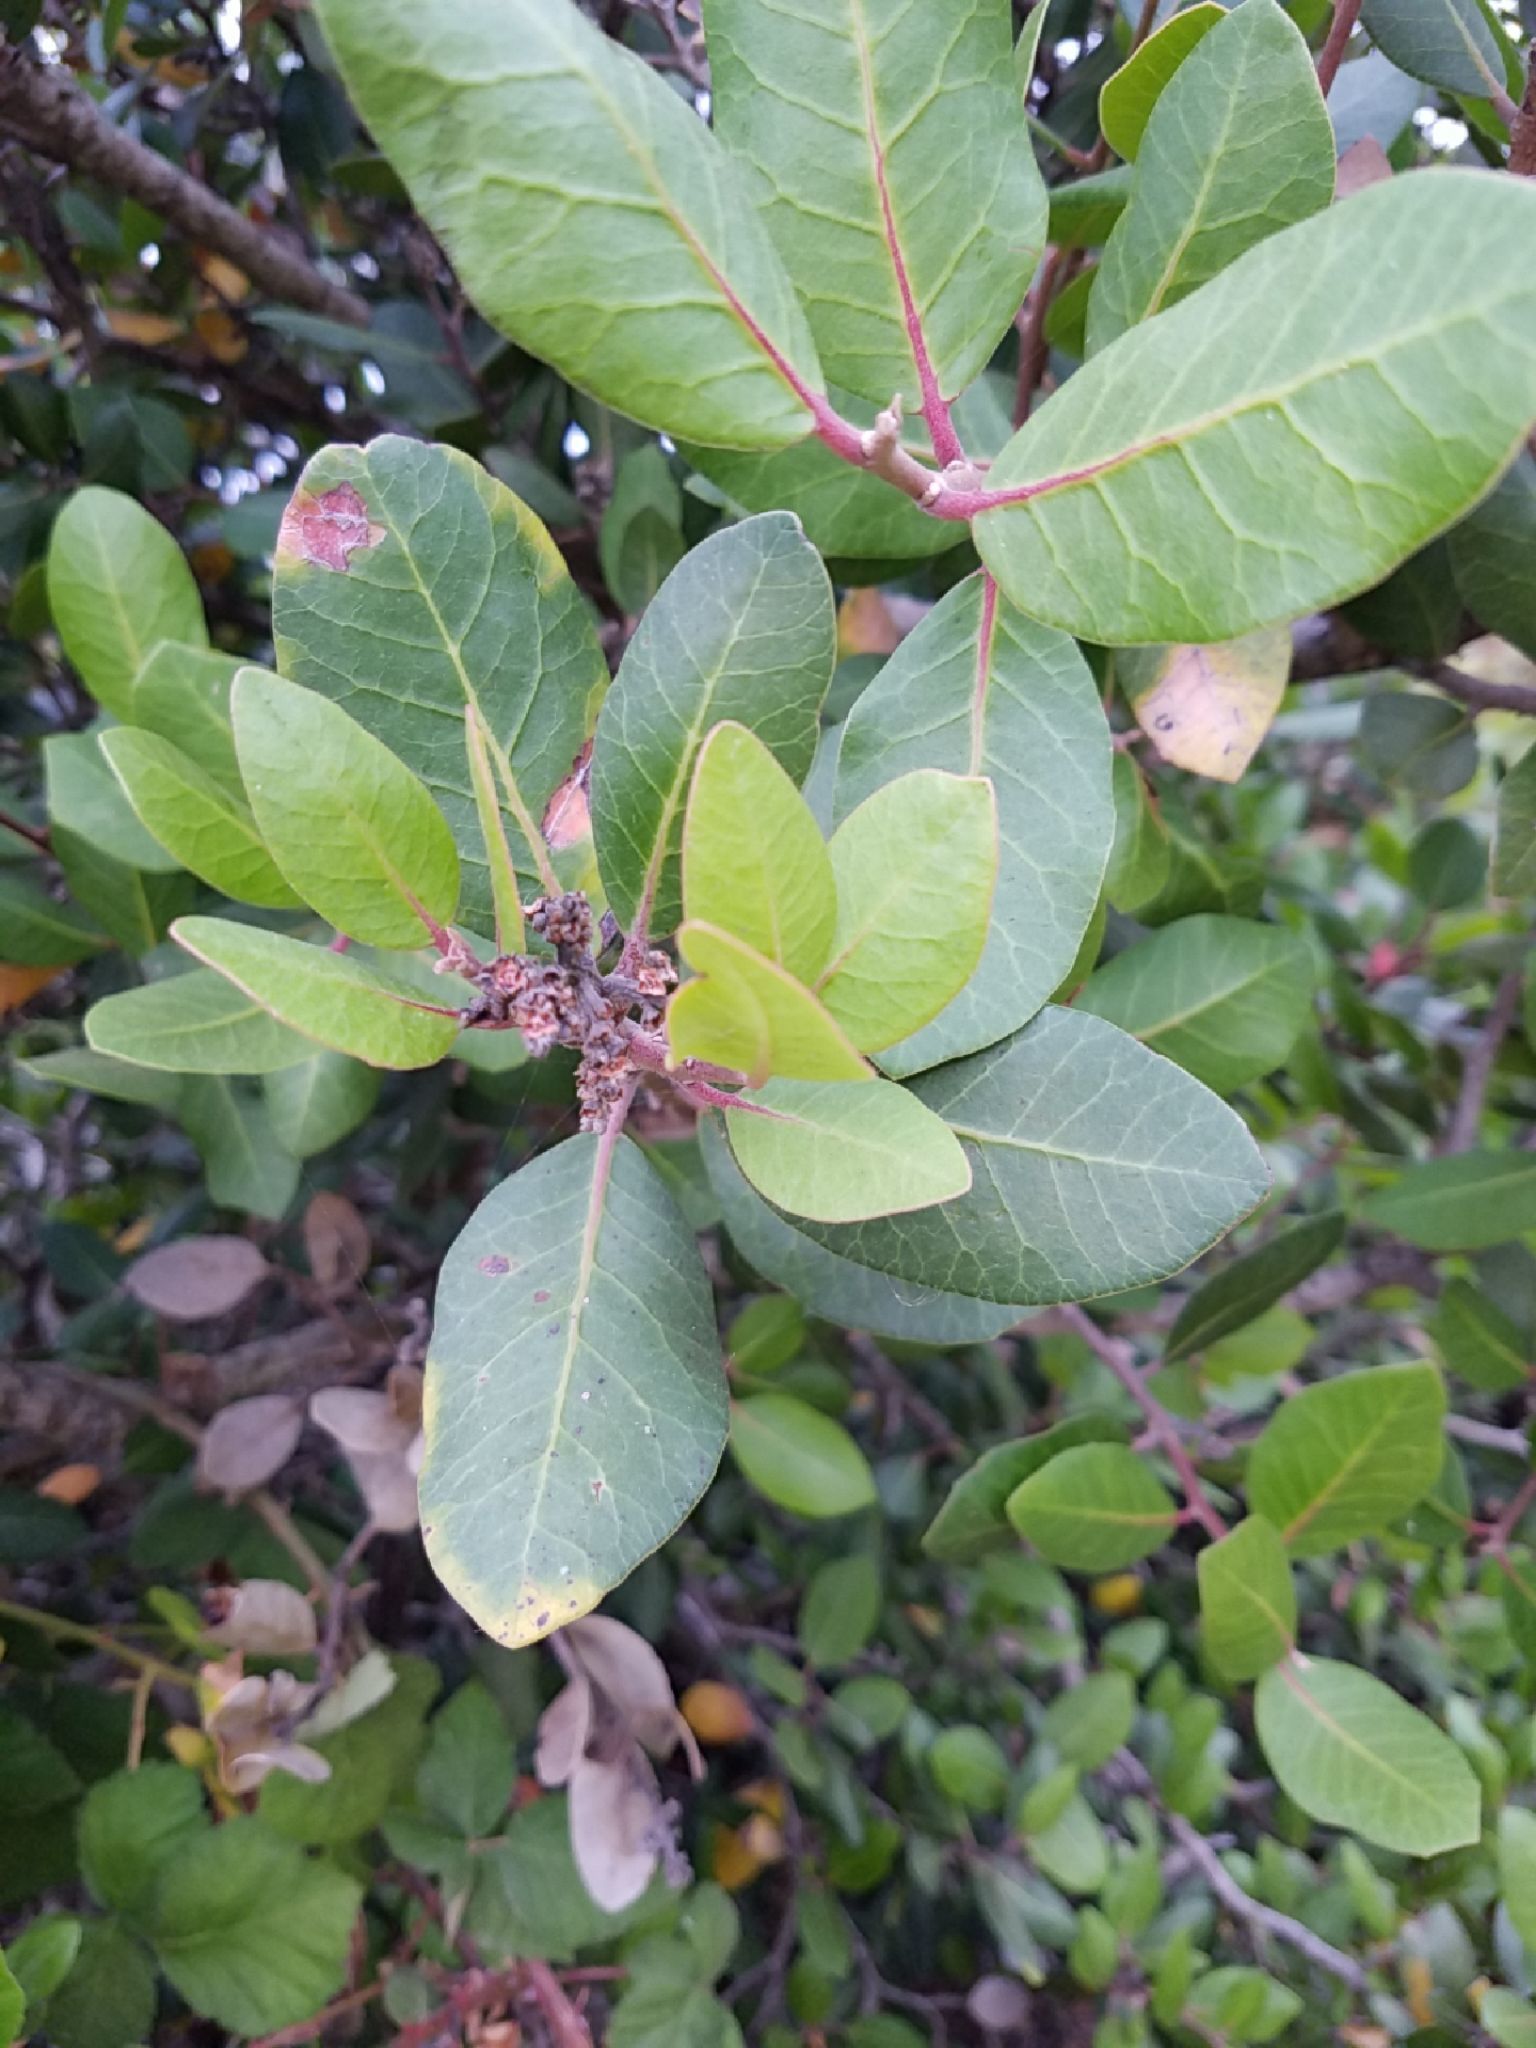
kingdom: Plantae
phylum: Tracheophyta
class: Magnoliopsida
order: Sapindales
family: Anacardiaceae
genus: Rhus
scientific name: Rhus integrifolia
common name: Lemonade sumac
